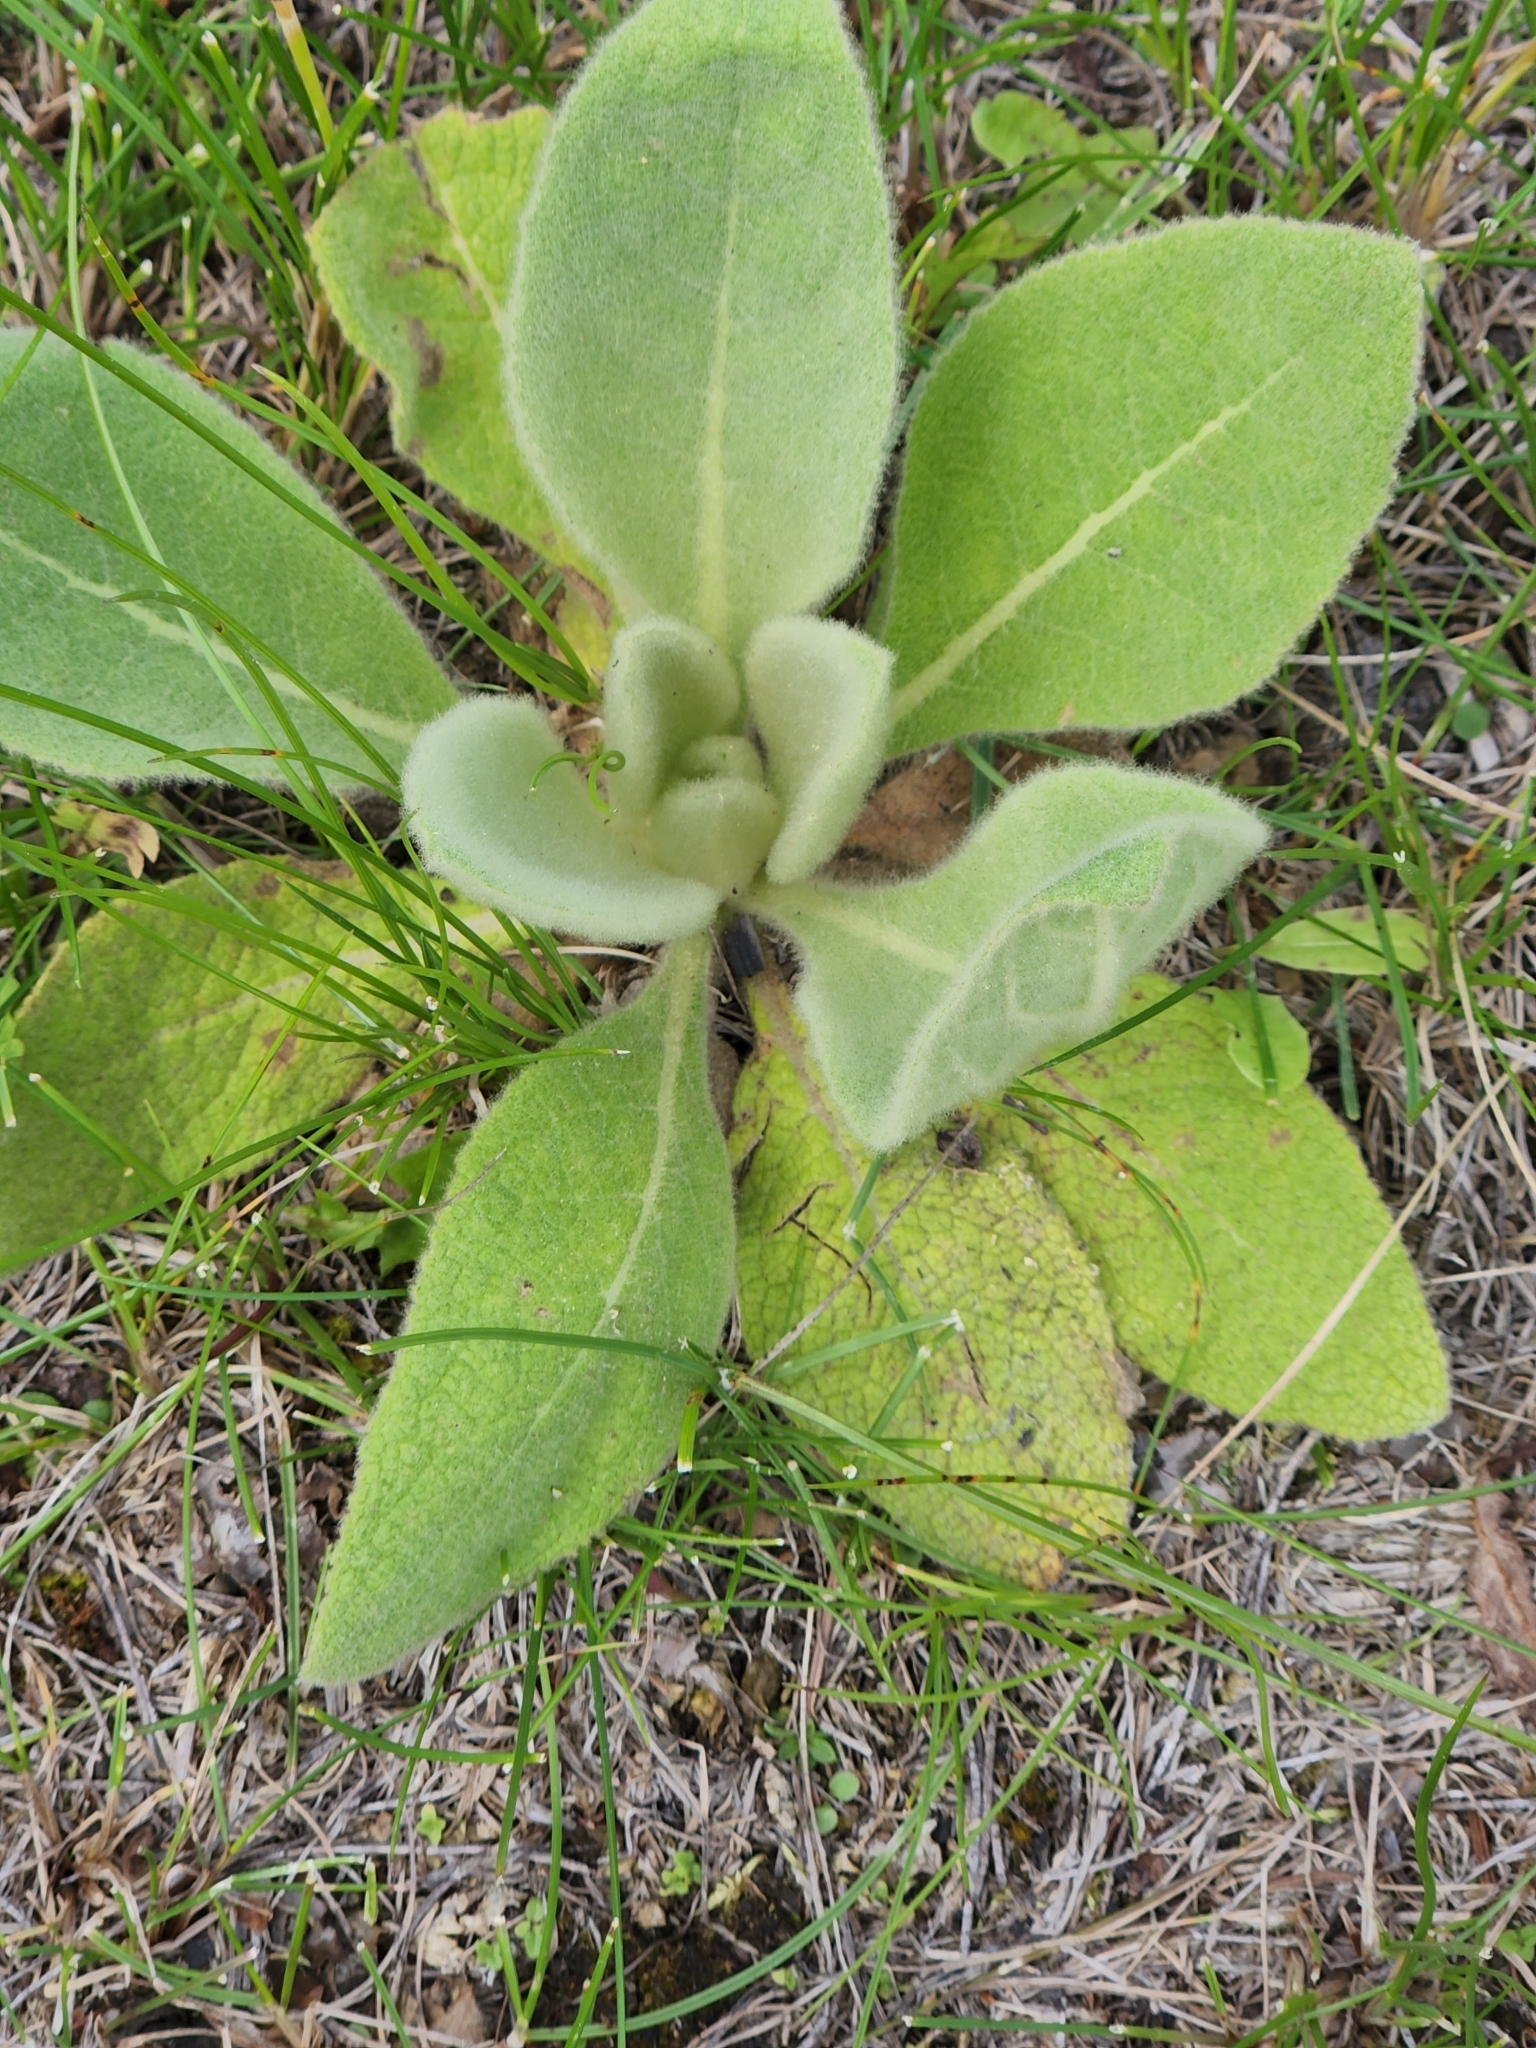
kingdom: Plantae
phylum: Tracheophyta
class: Magnoliopsida
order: Lamiales
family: Scrophulariaceae
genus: Verbascum
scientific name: Verbascum thapsus
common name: Common mullein
